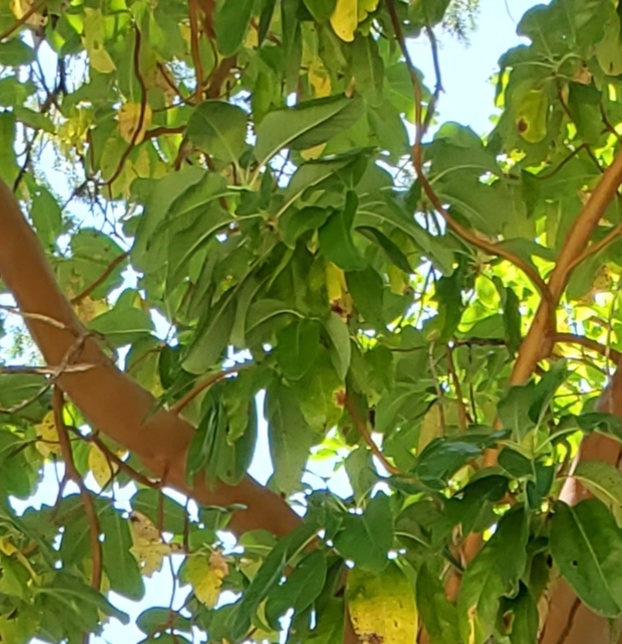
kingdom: Plantae
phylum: Tracheophyta
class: Magnoliopsida
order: Ericales
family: Ericaceae
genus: Arbutus
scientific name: Arbutus menziesii
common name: Pacific madrone
